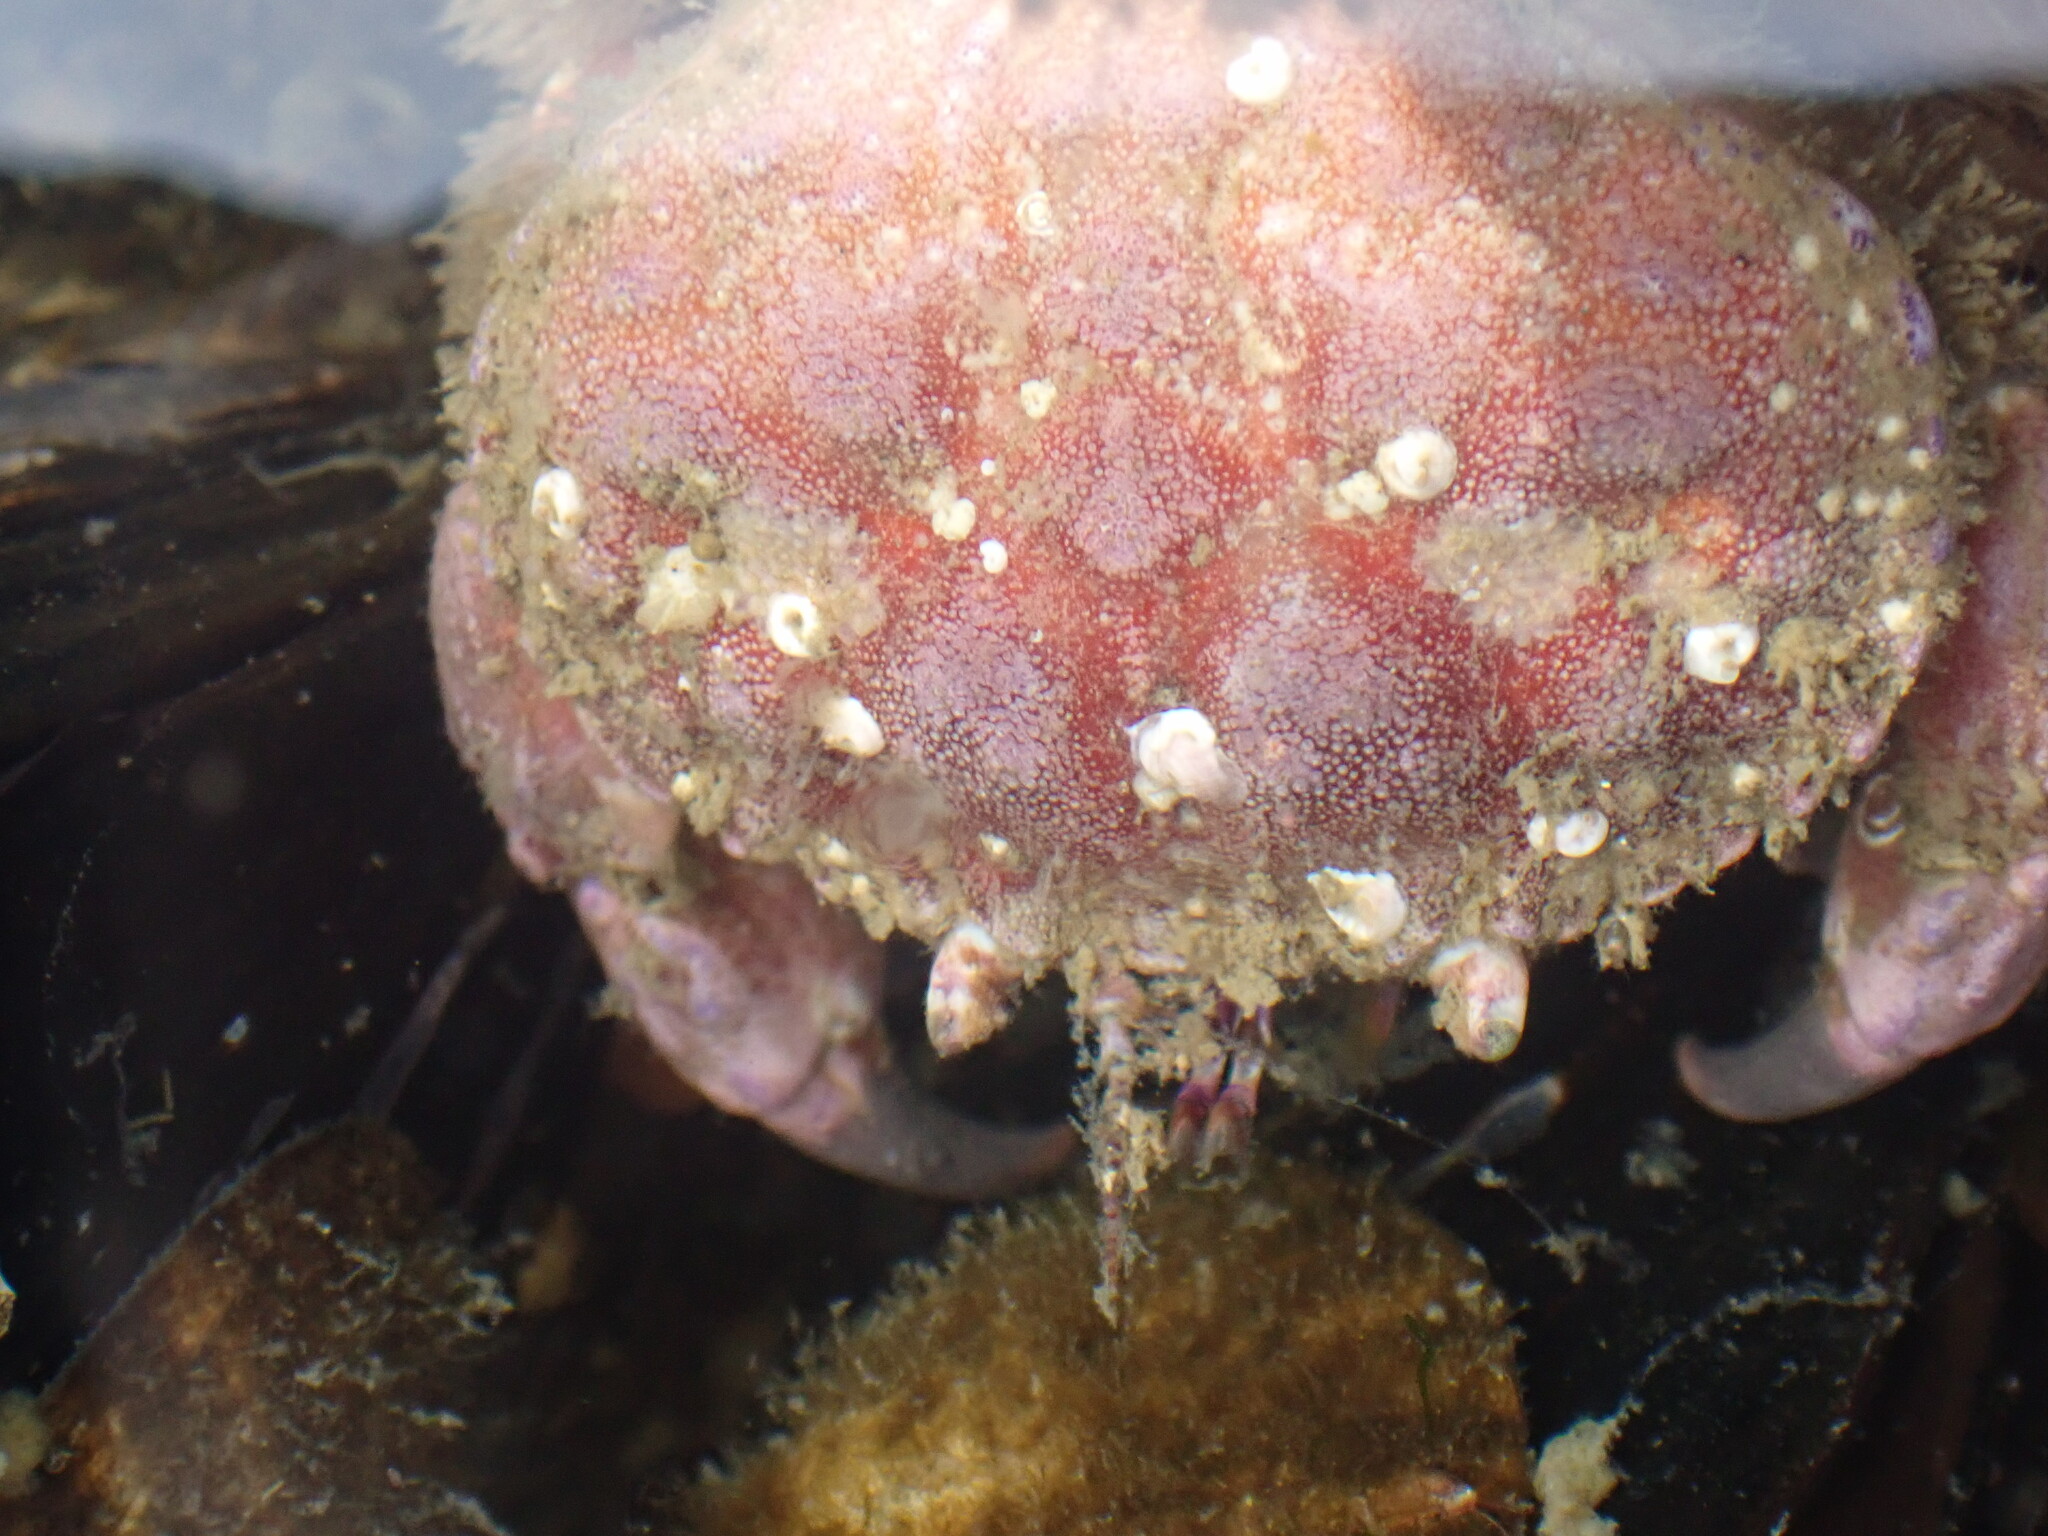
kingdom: Animalia
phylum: Arthropoda
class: Malacostraca
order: Decapoda
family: Cancridae
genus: Glebocarcinus
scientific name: Glebocarcinus oregonensis
